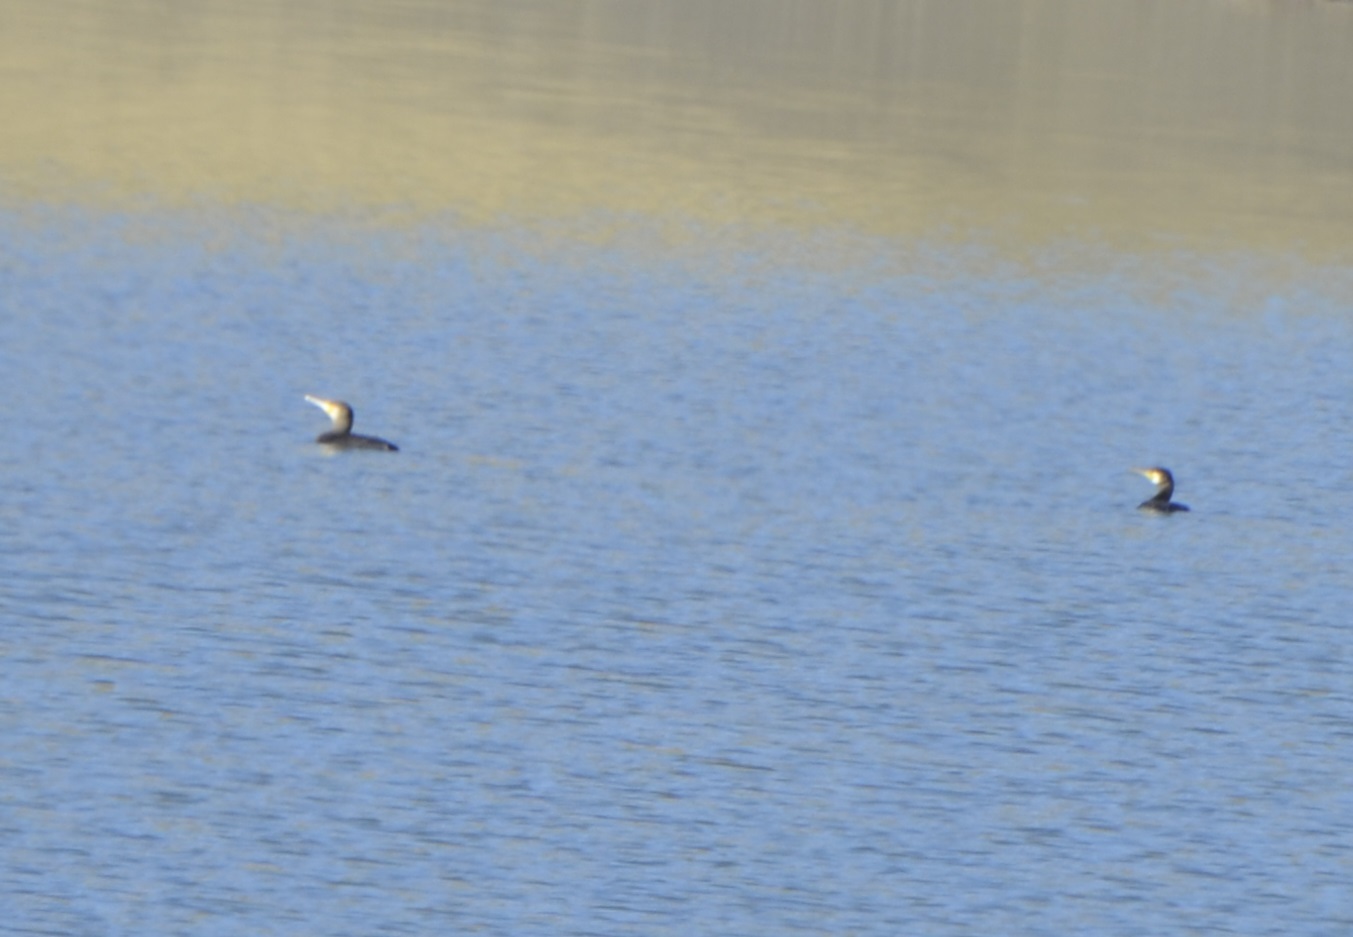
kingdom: Animalia
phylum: Chordata
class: Aves
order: Suliformes
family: Phalacrocoracidae
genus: Phalacrocorax
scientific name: Phalacrocorax carbo
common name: Great cormorant
